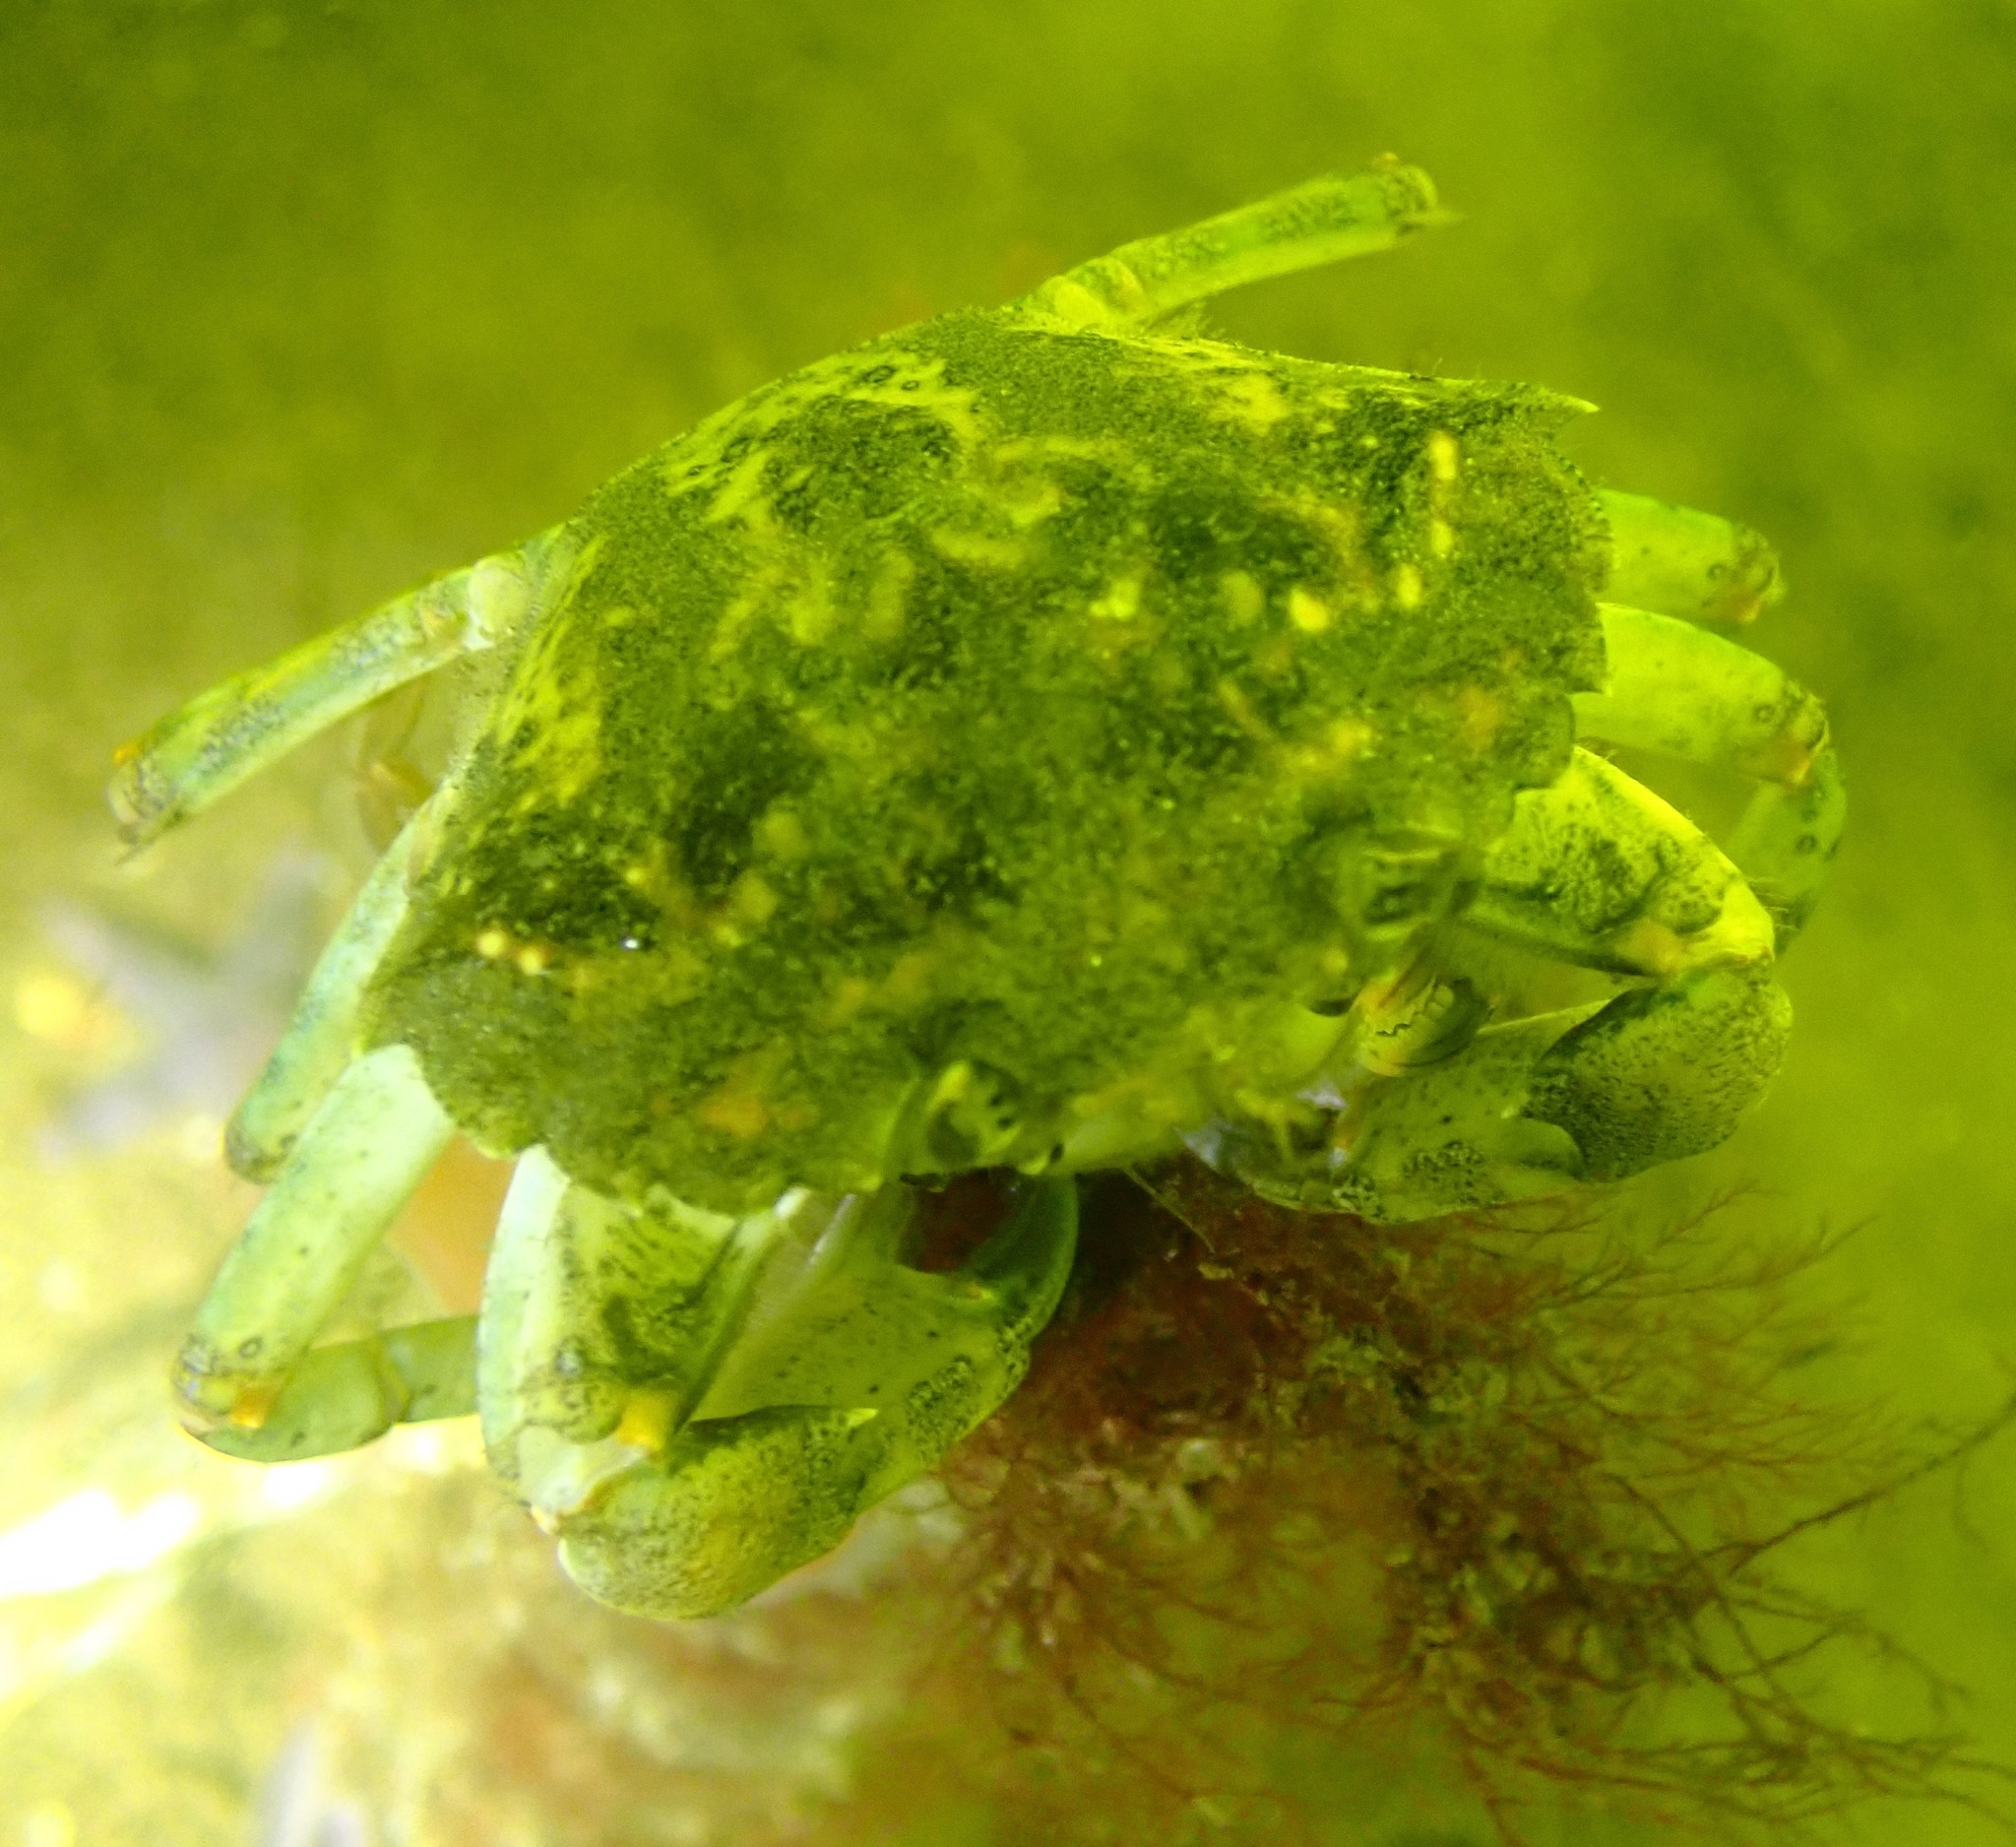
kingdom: Animalia
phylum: Arthropoda
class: Malacostraca
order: Decapoda
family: Carcinidae
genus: Carcinus
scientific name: Carcinus maenas
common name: European green crab
